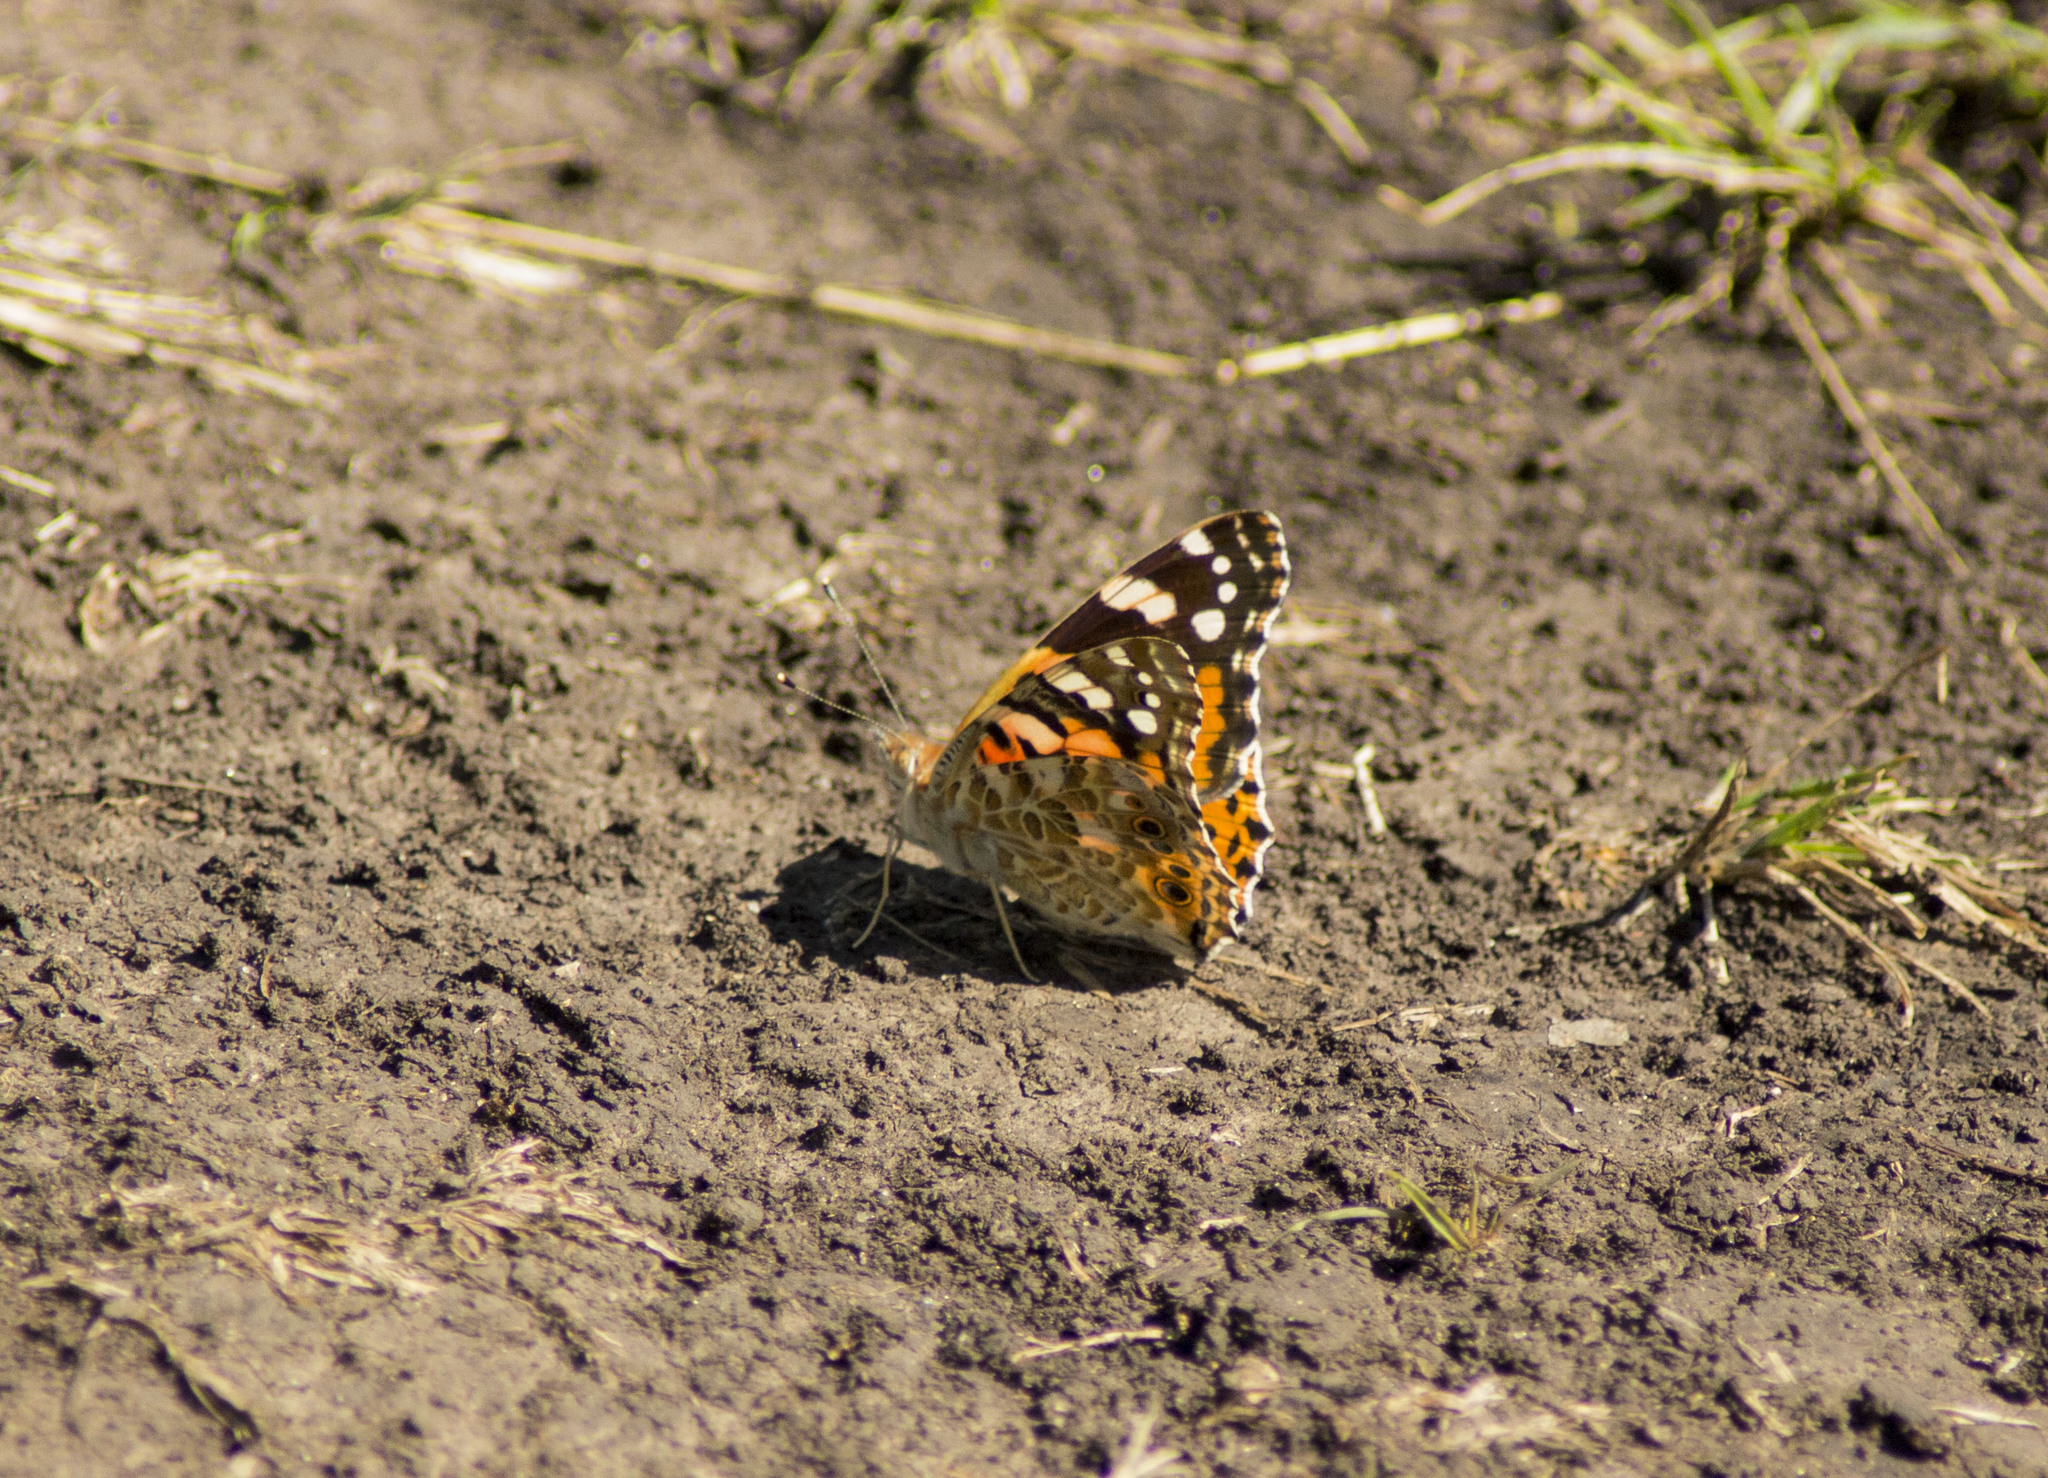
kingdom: Animalia
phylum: Arthropoda
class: Insecta
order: Lepidoptera
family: Nymphalidae
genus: Vanessa
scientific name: Vanessa cardui
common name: Painted lady
